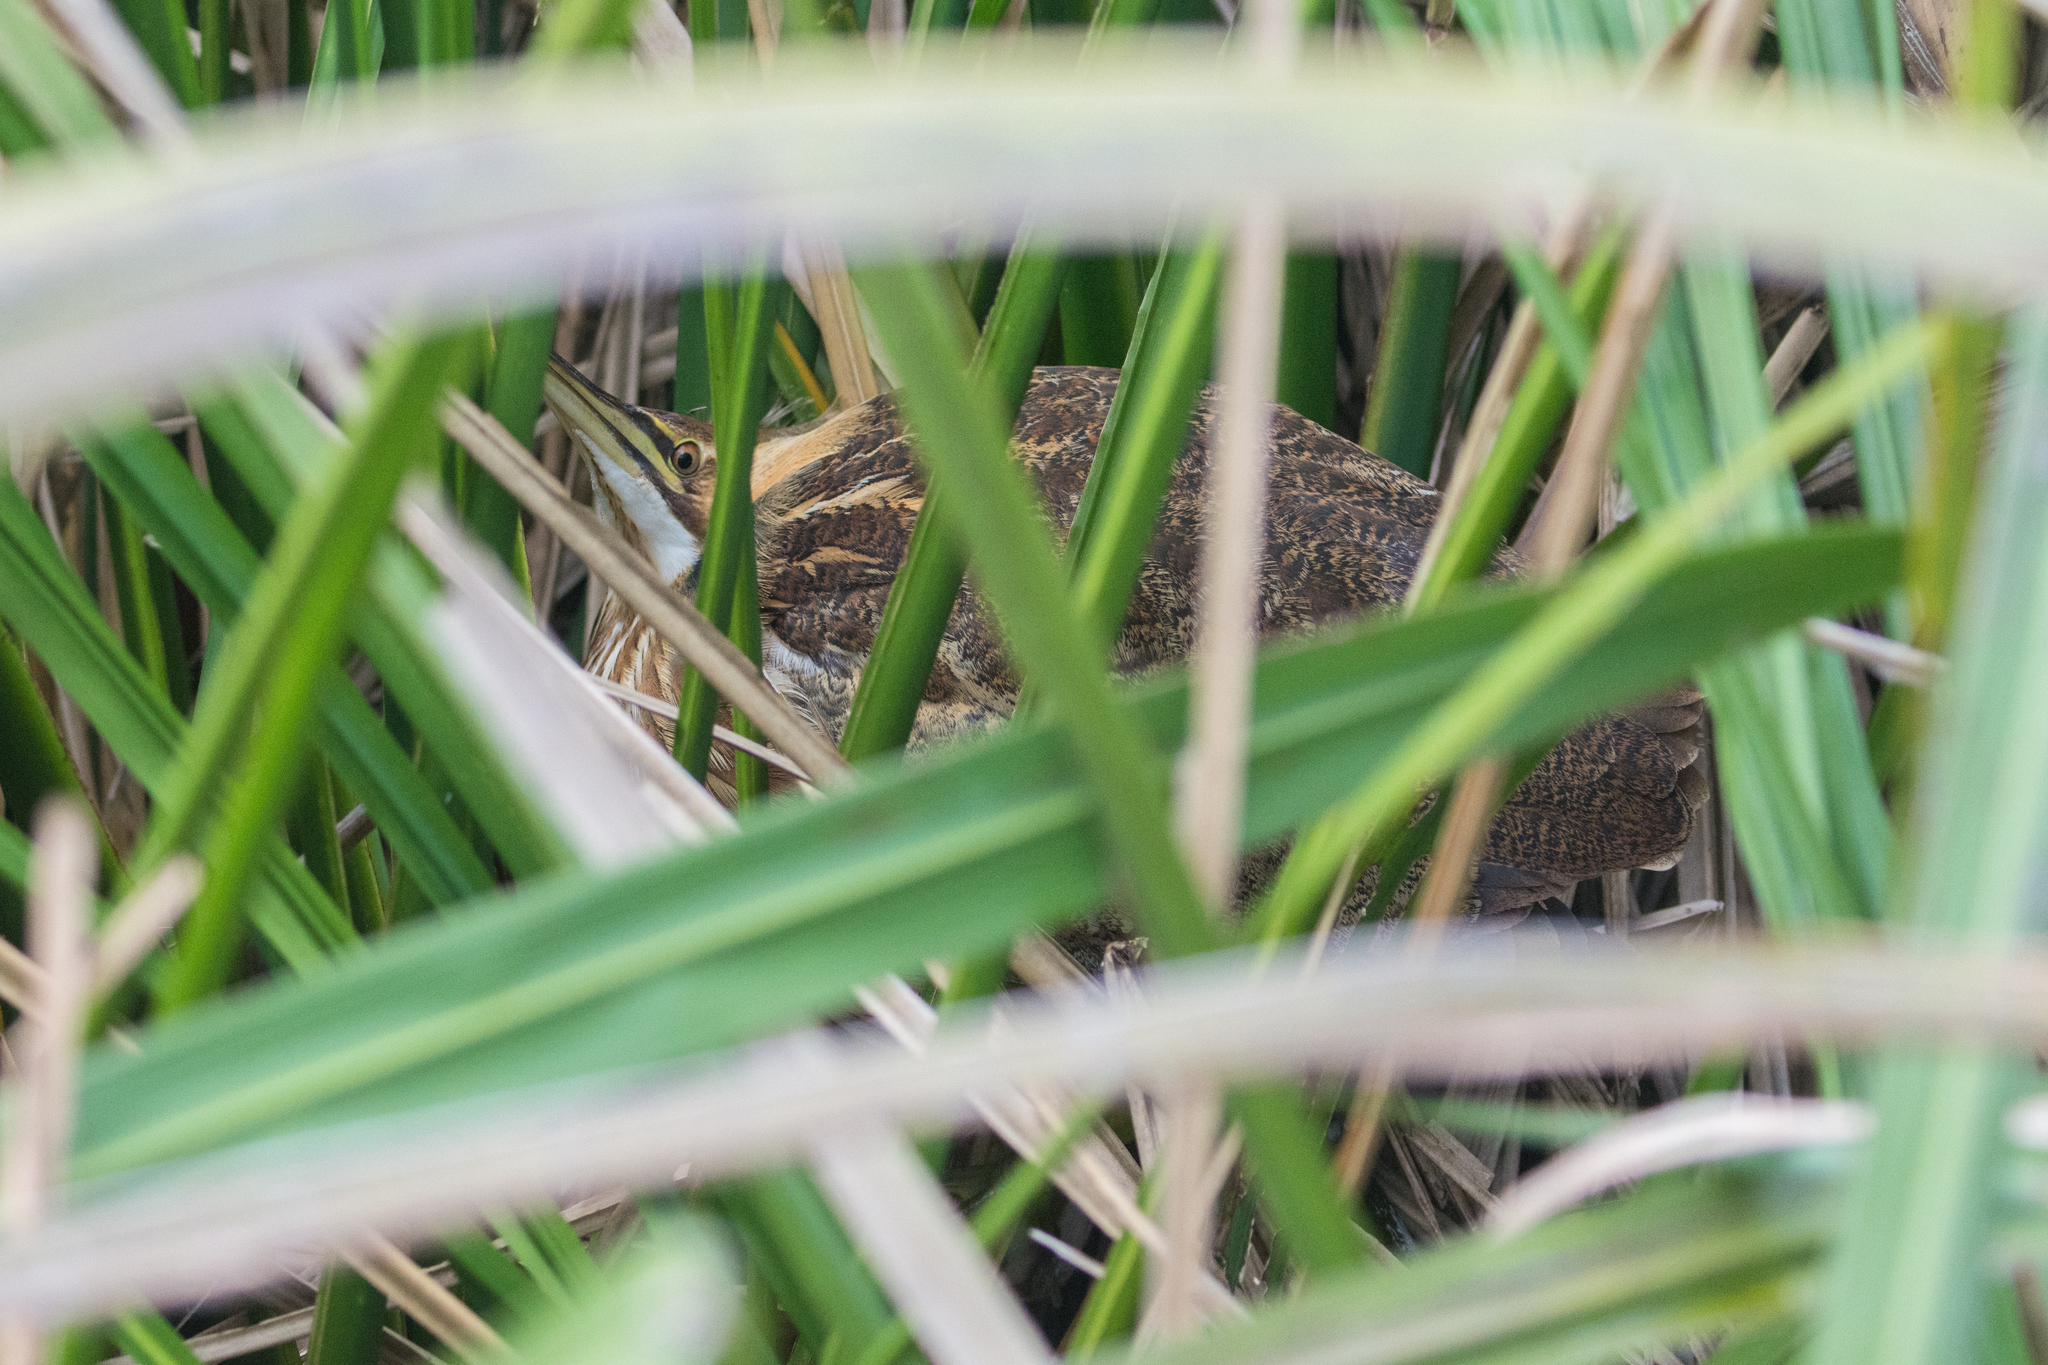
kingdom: Animalia
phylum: Chordata
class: Aves
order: Pelecaniformes
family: Ardeidae
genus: Botaurus
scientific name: Botaurus lentiginosus
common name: American bittern
